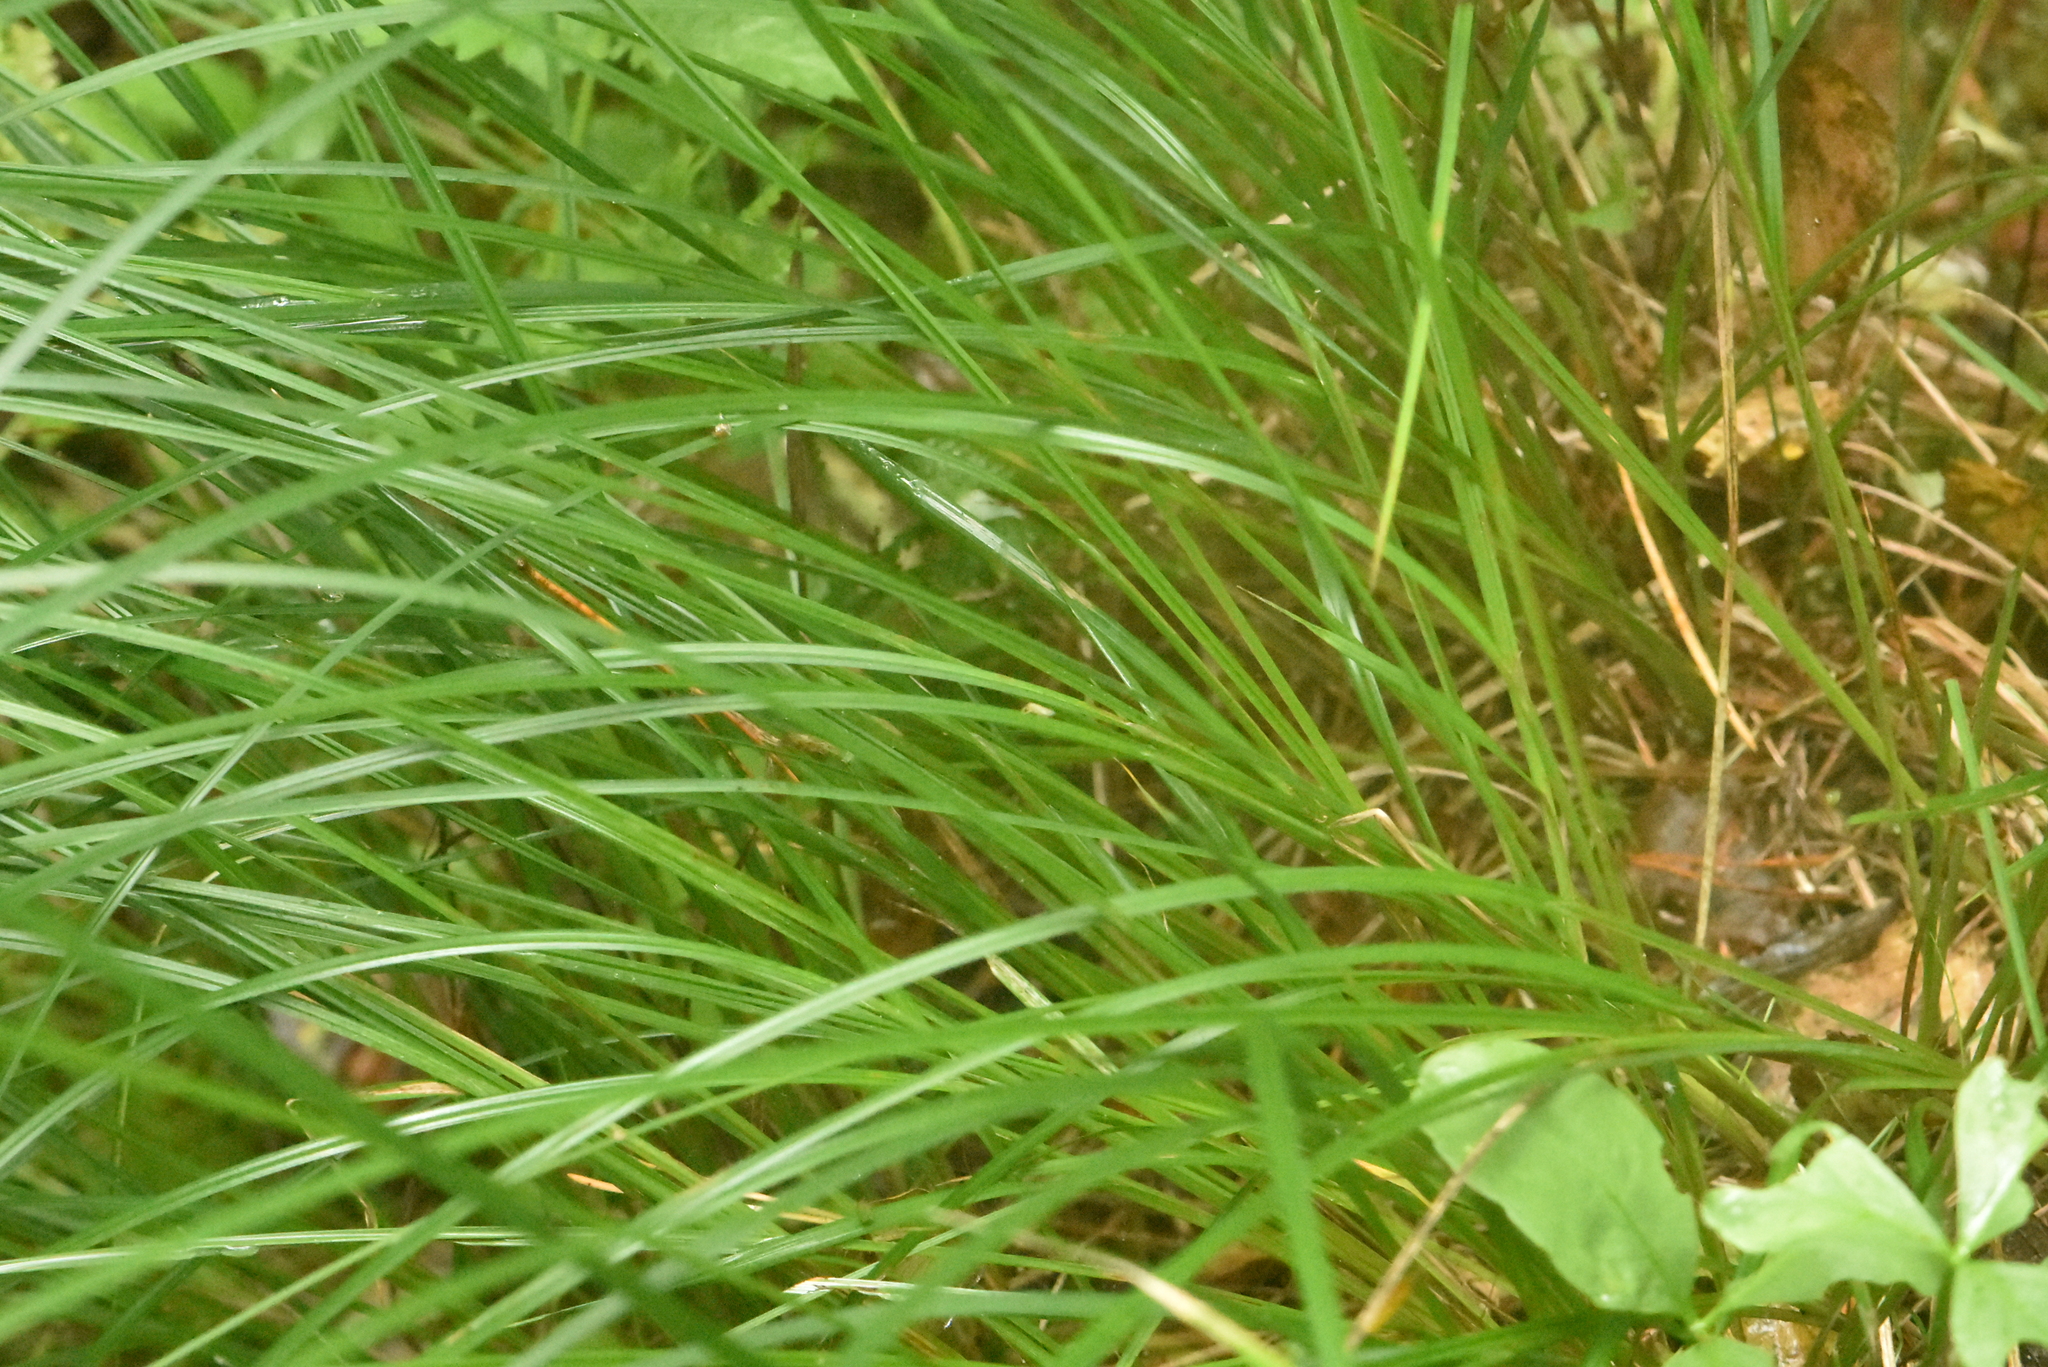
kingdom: Plantae
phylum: Tracheophyta
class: Liliopsida
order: Poales
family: Cyperaceae
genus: Carex
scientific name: Carex pallescens
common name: Pale sedge
